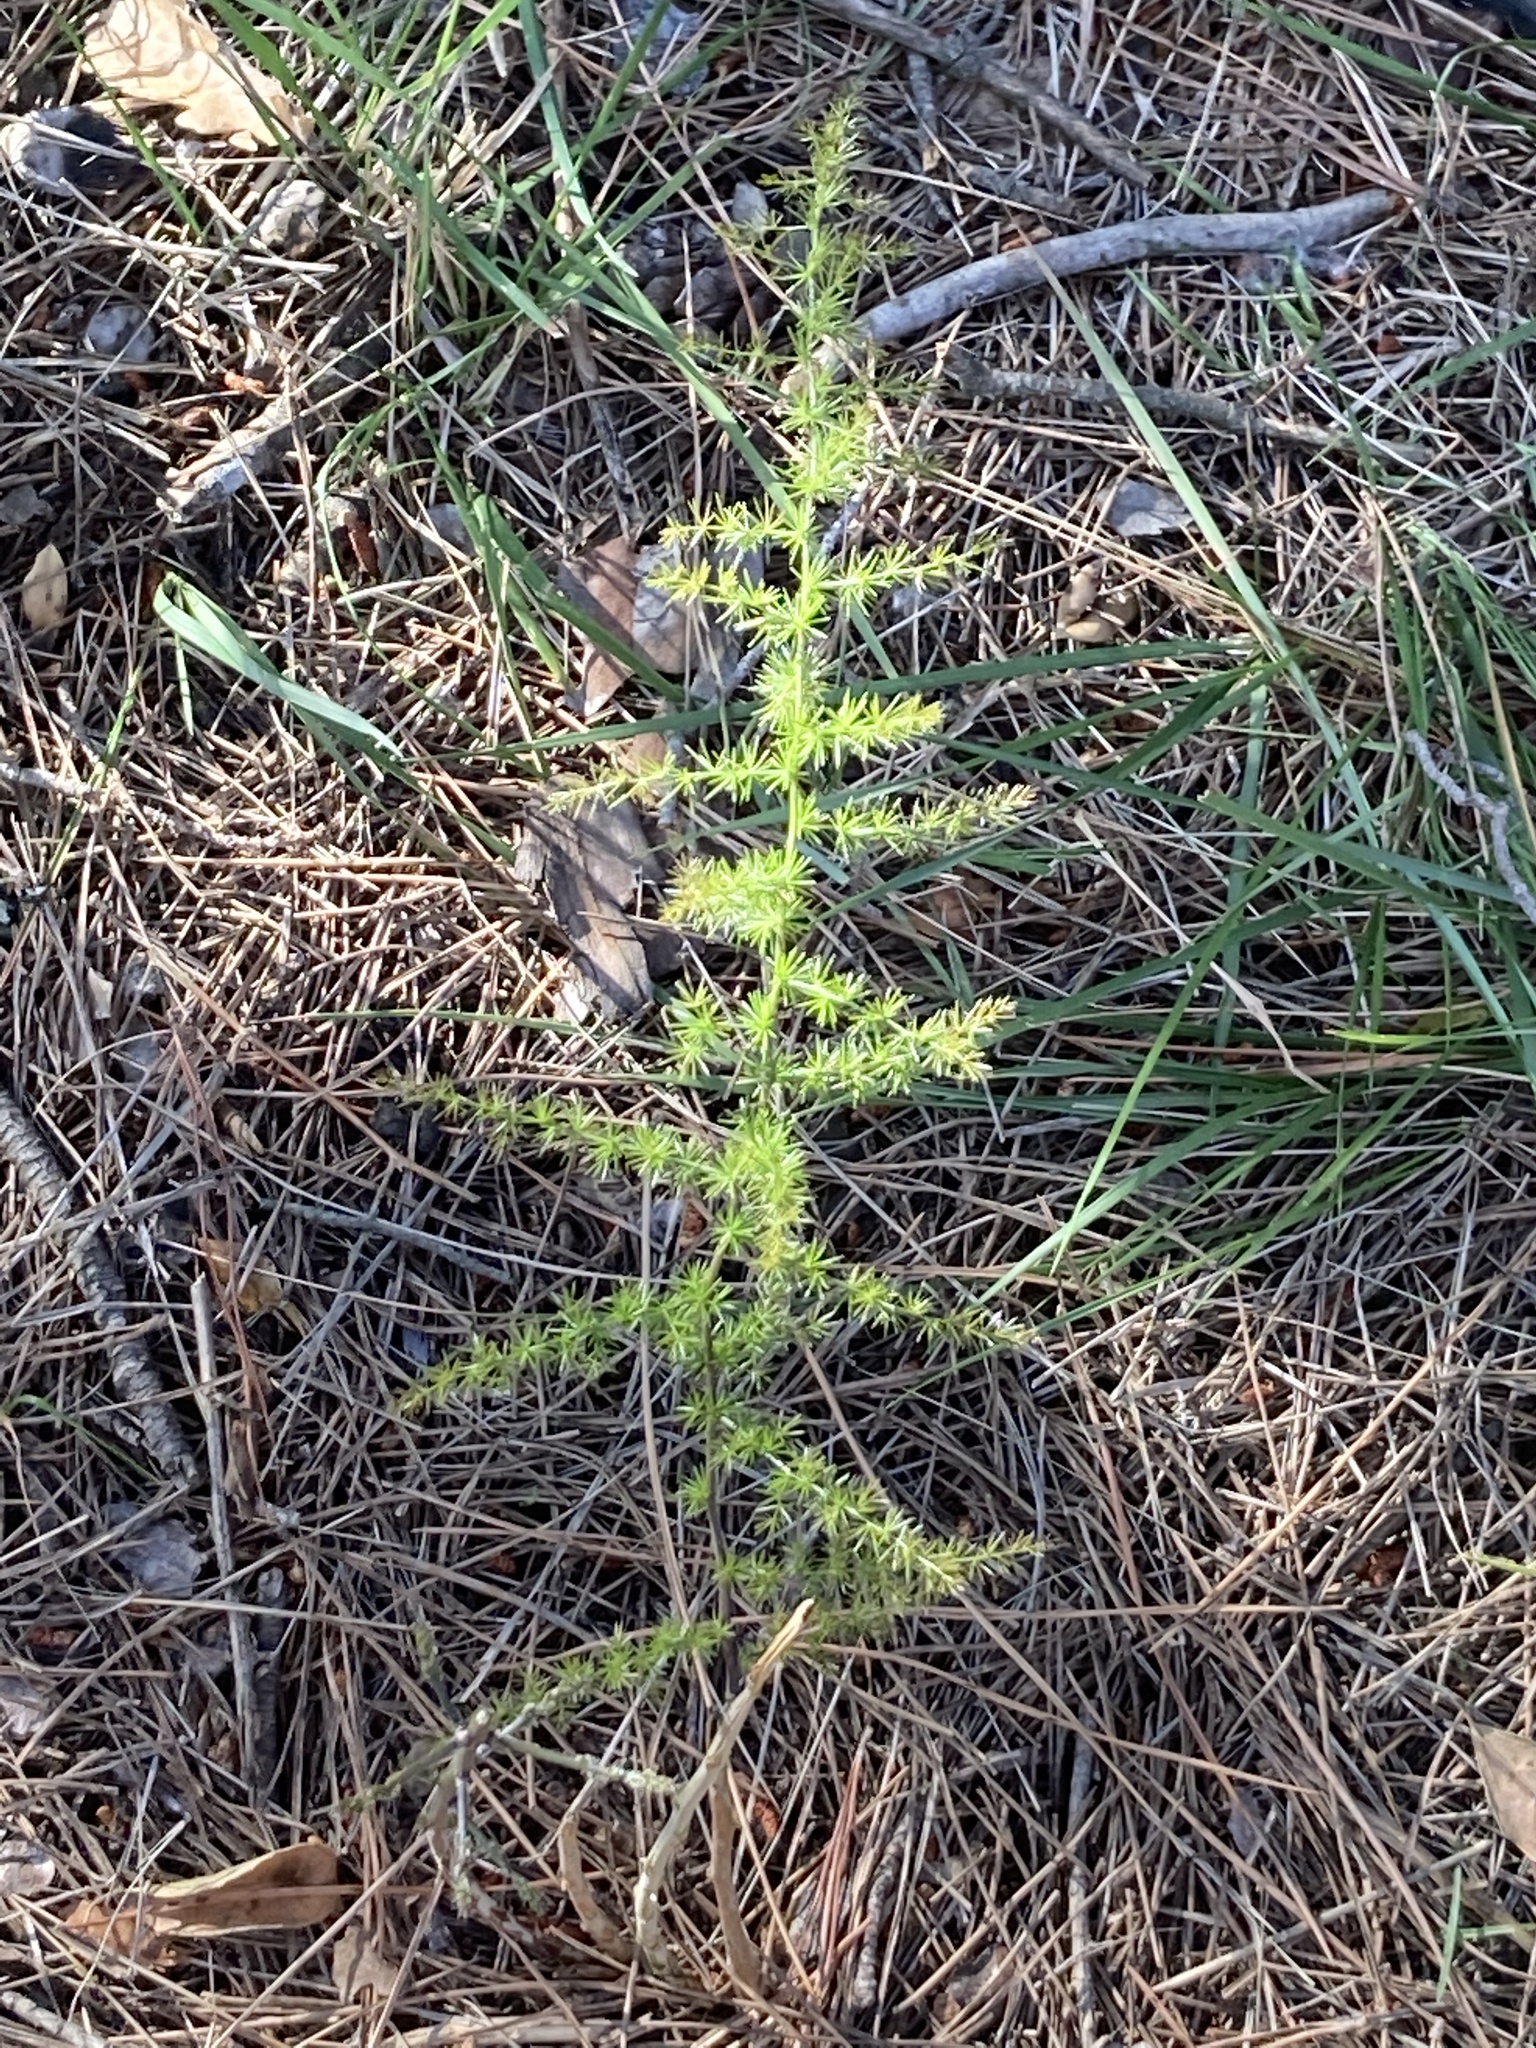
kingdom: Plantae
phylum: Tracheophyta
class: Liliopsida
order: Asparagales
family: Asparagaceae
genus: Asparagus
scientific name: Asparagus acutifolius
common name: Wild asparagus
